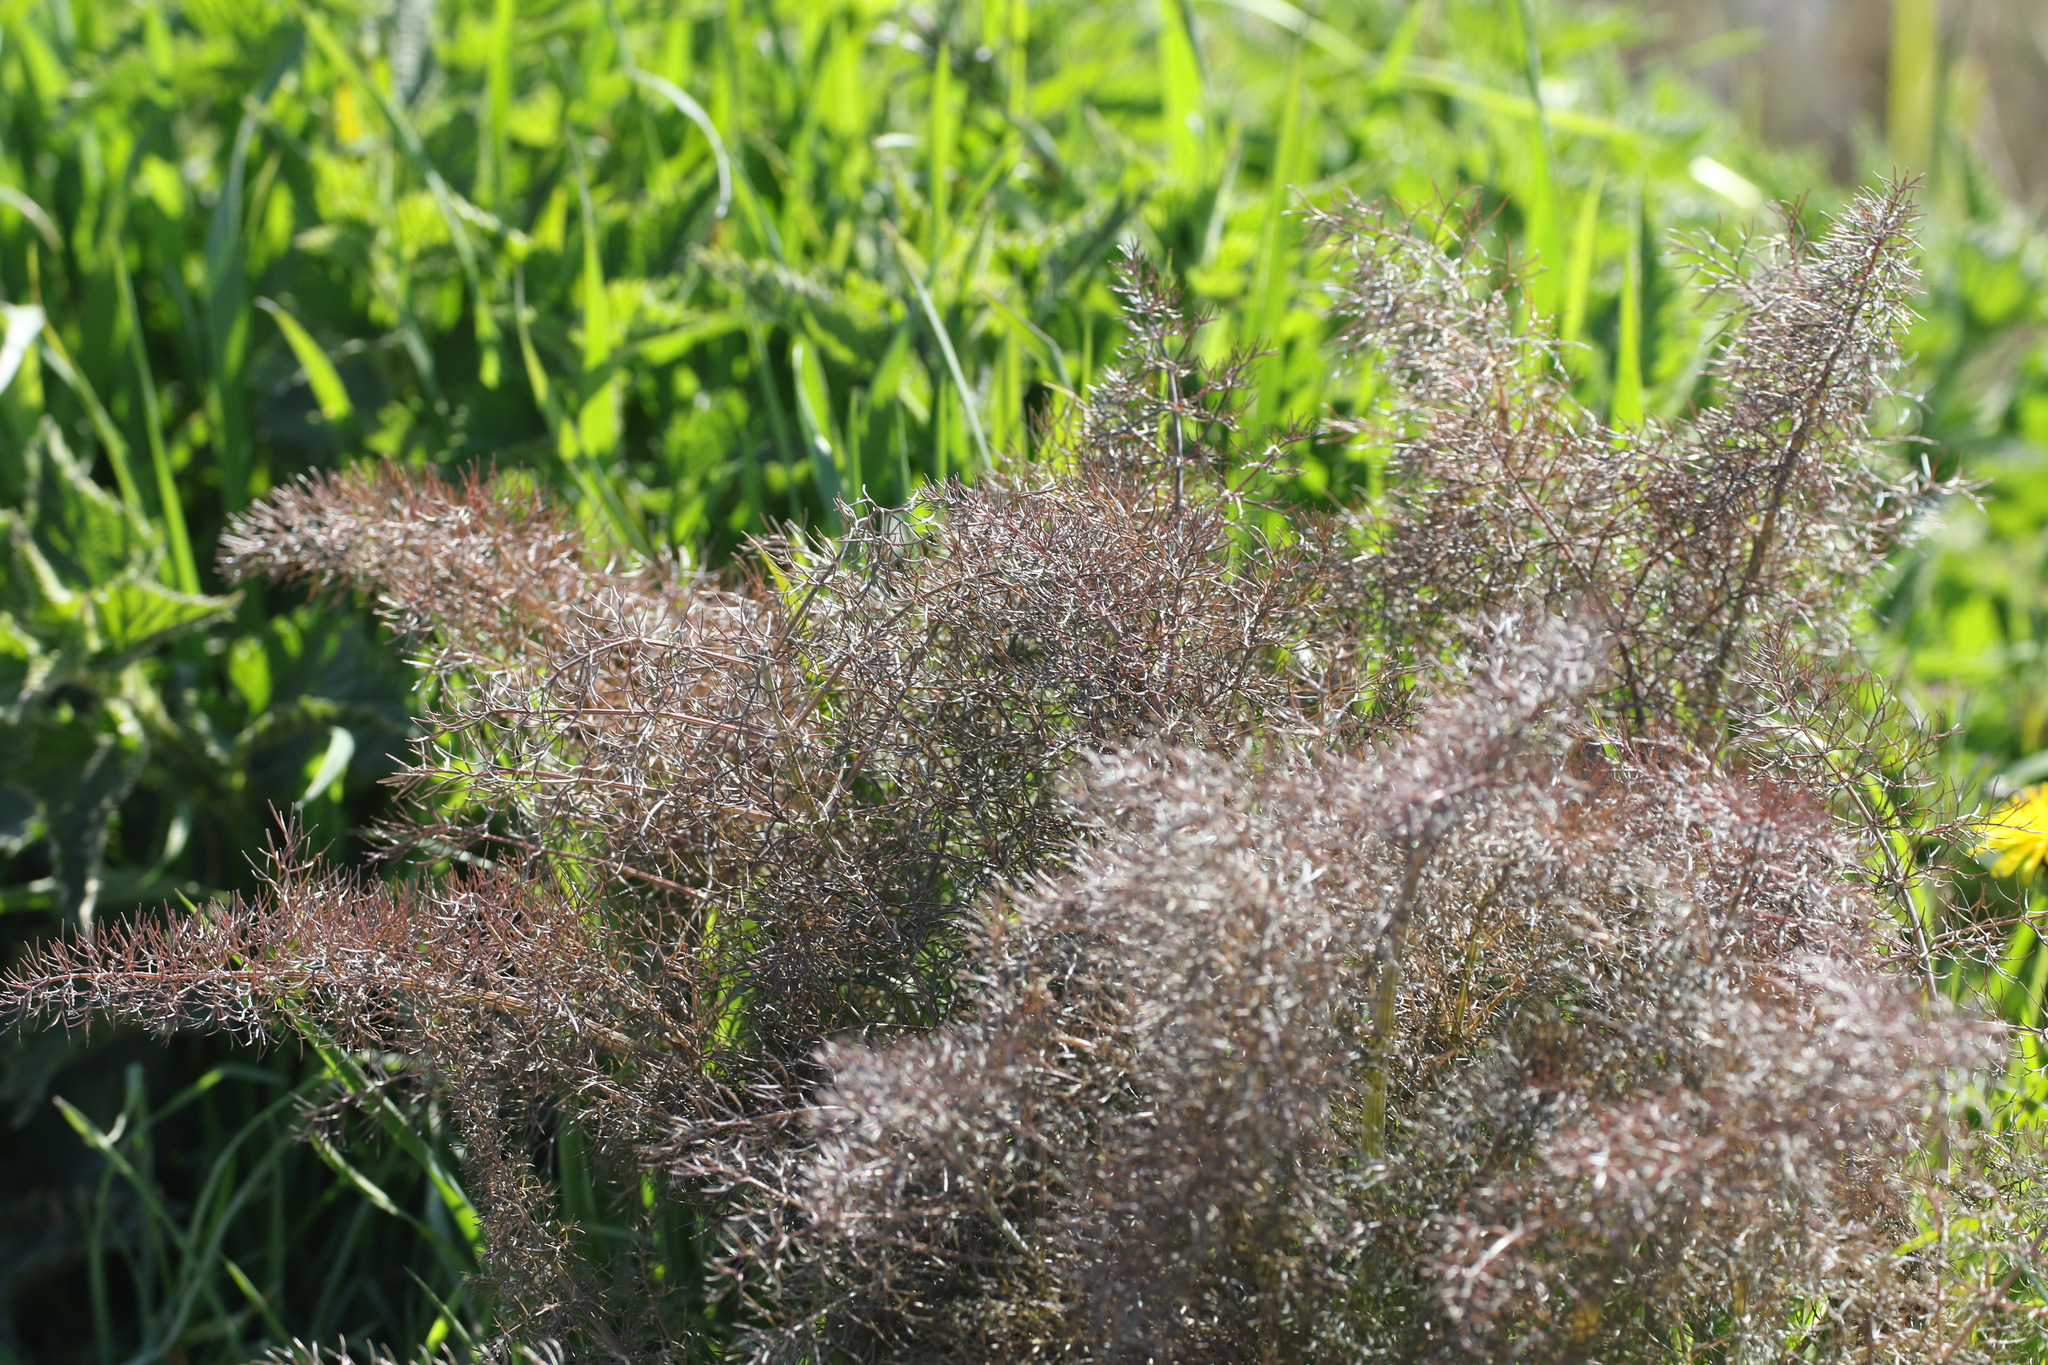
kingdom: Plantae
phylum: Tracheophyta
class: Magnoliopsida
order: Apiales
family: Apiaceae
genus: Foeniculum
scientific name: Foeniculum vulgare
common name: Fennel
